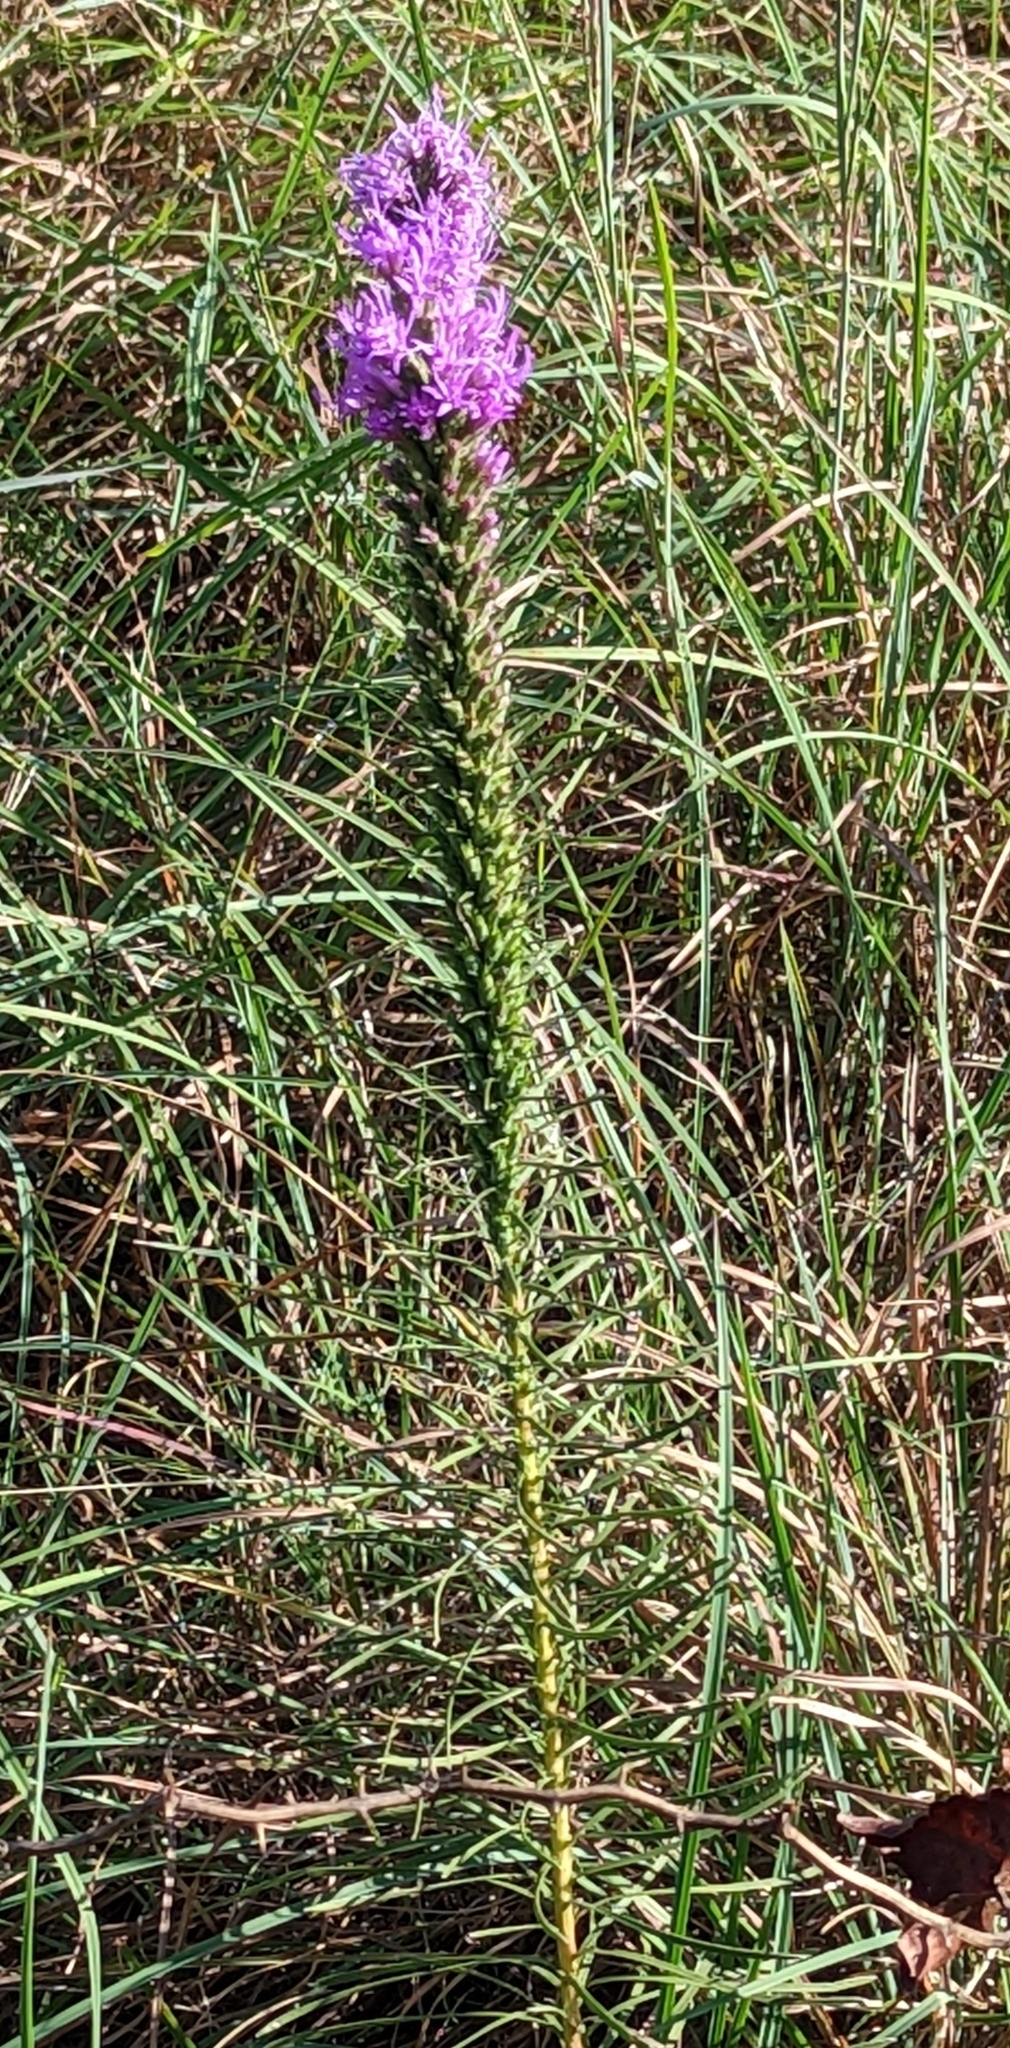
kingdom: Plantae
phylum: Tracheophyta
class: Magnoliopsida
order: Asterales
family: Asteraceae
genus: Liatris
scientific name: Liatris punctata
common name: Dotted gayfeather
